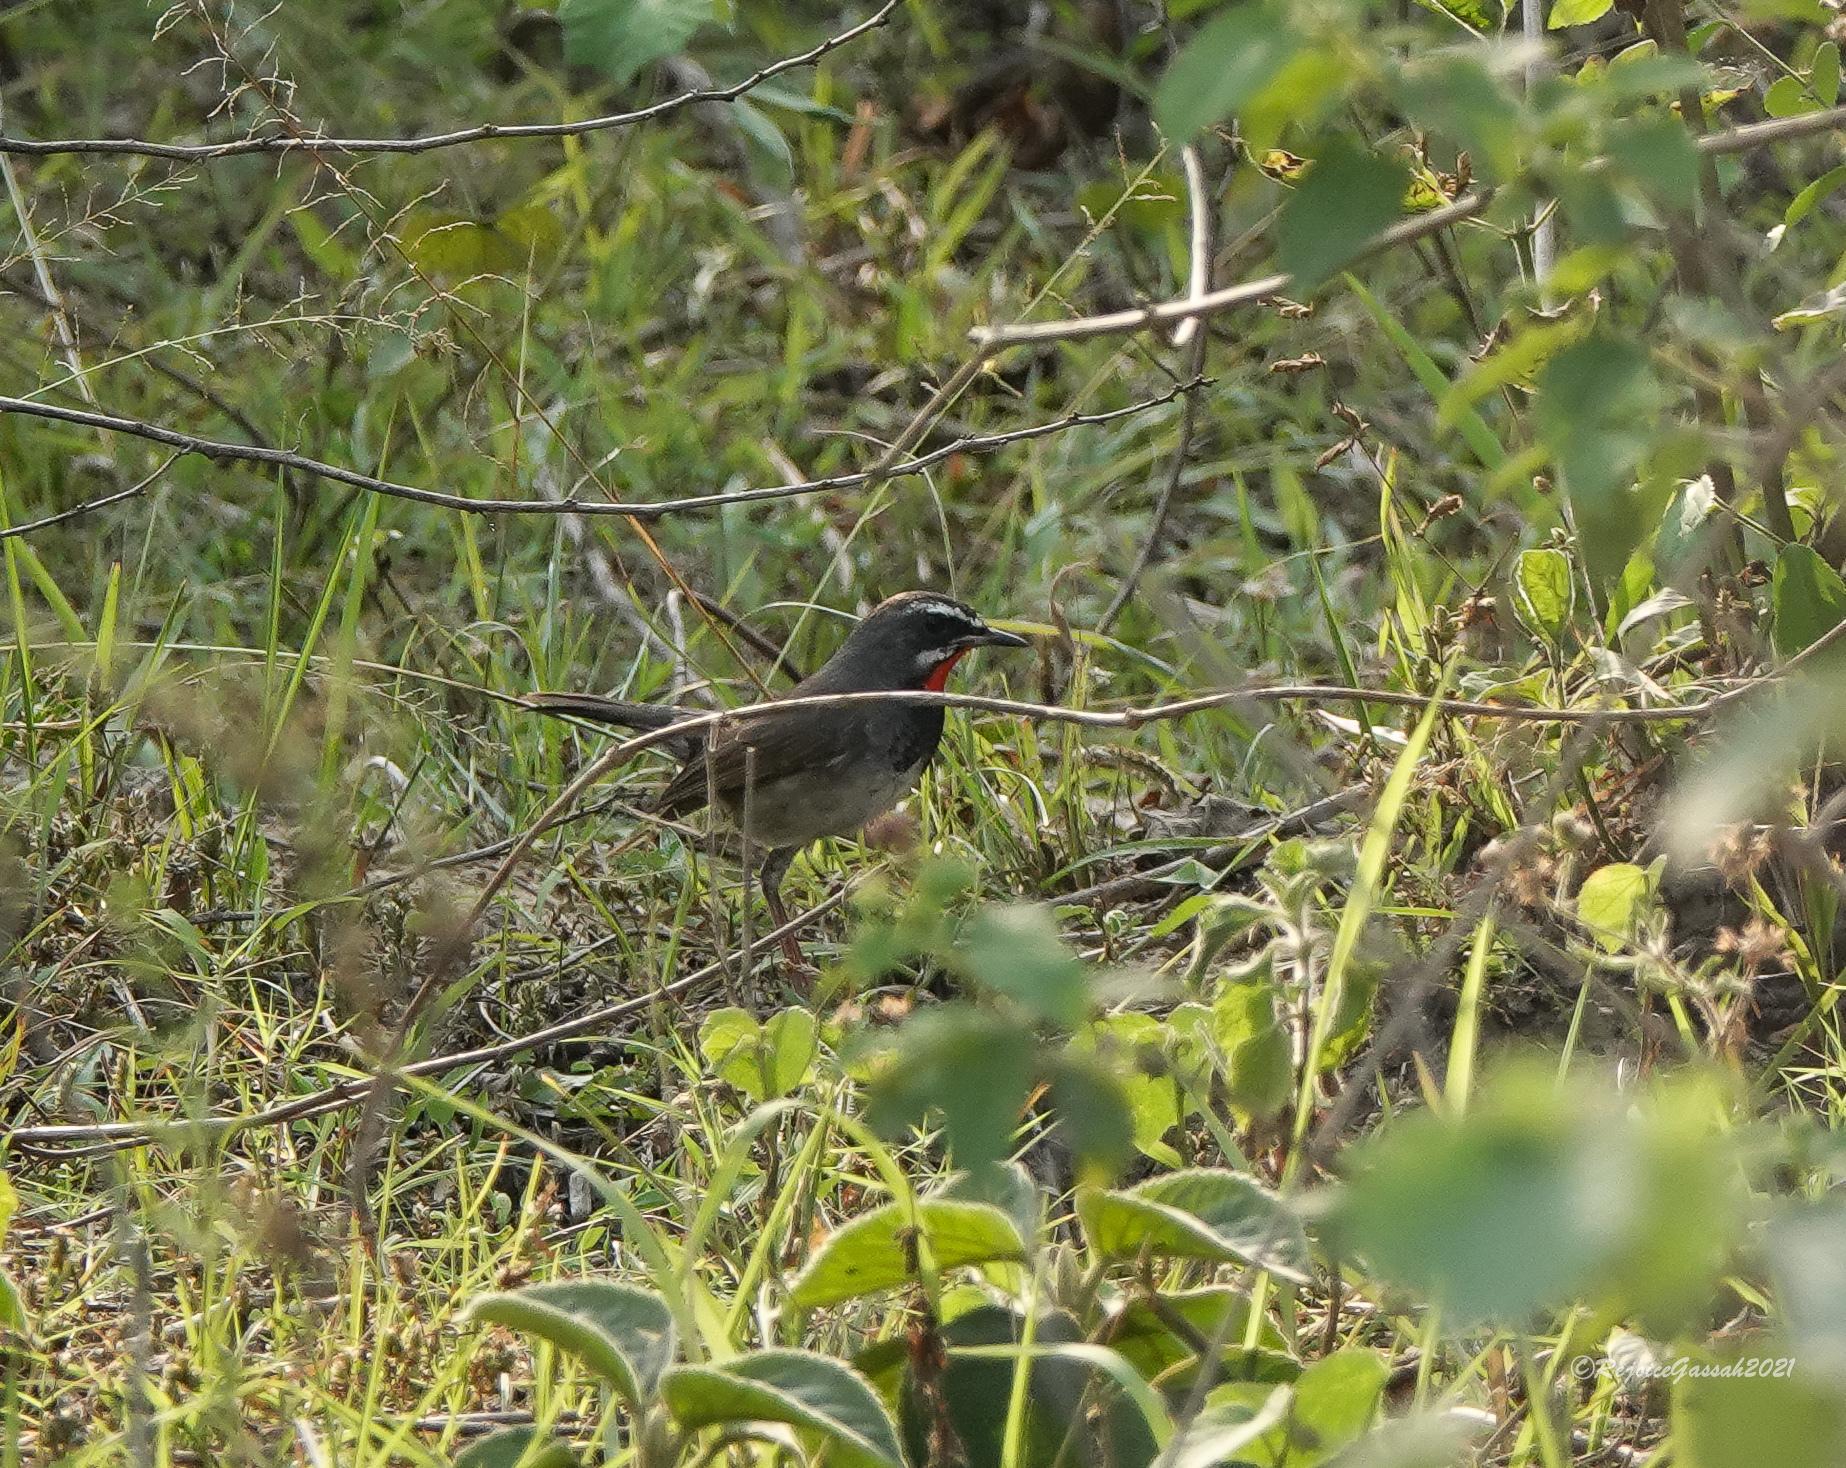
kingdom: Animalia
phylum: Chordata
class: Aves
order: Passeriformes
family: Muscicapidae
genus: Calliope
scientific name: Calliope tschebaiewi
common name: Chinese rubythroat
